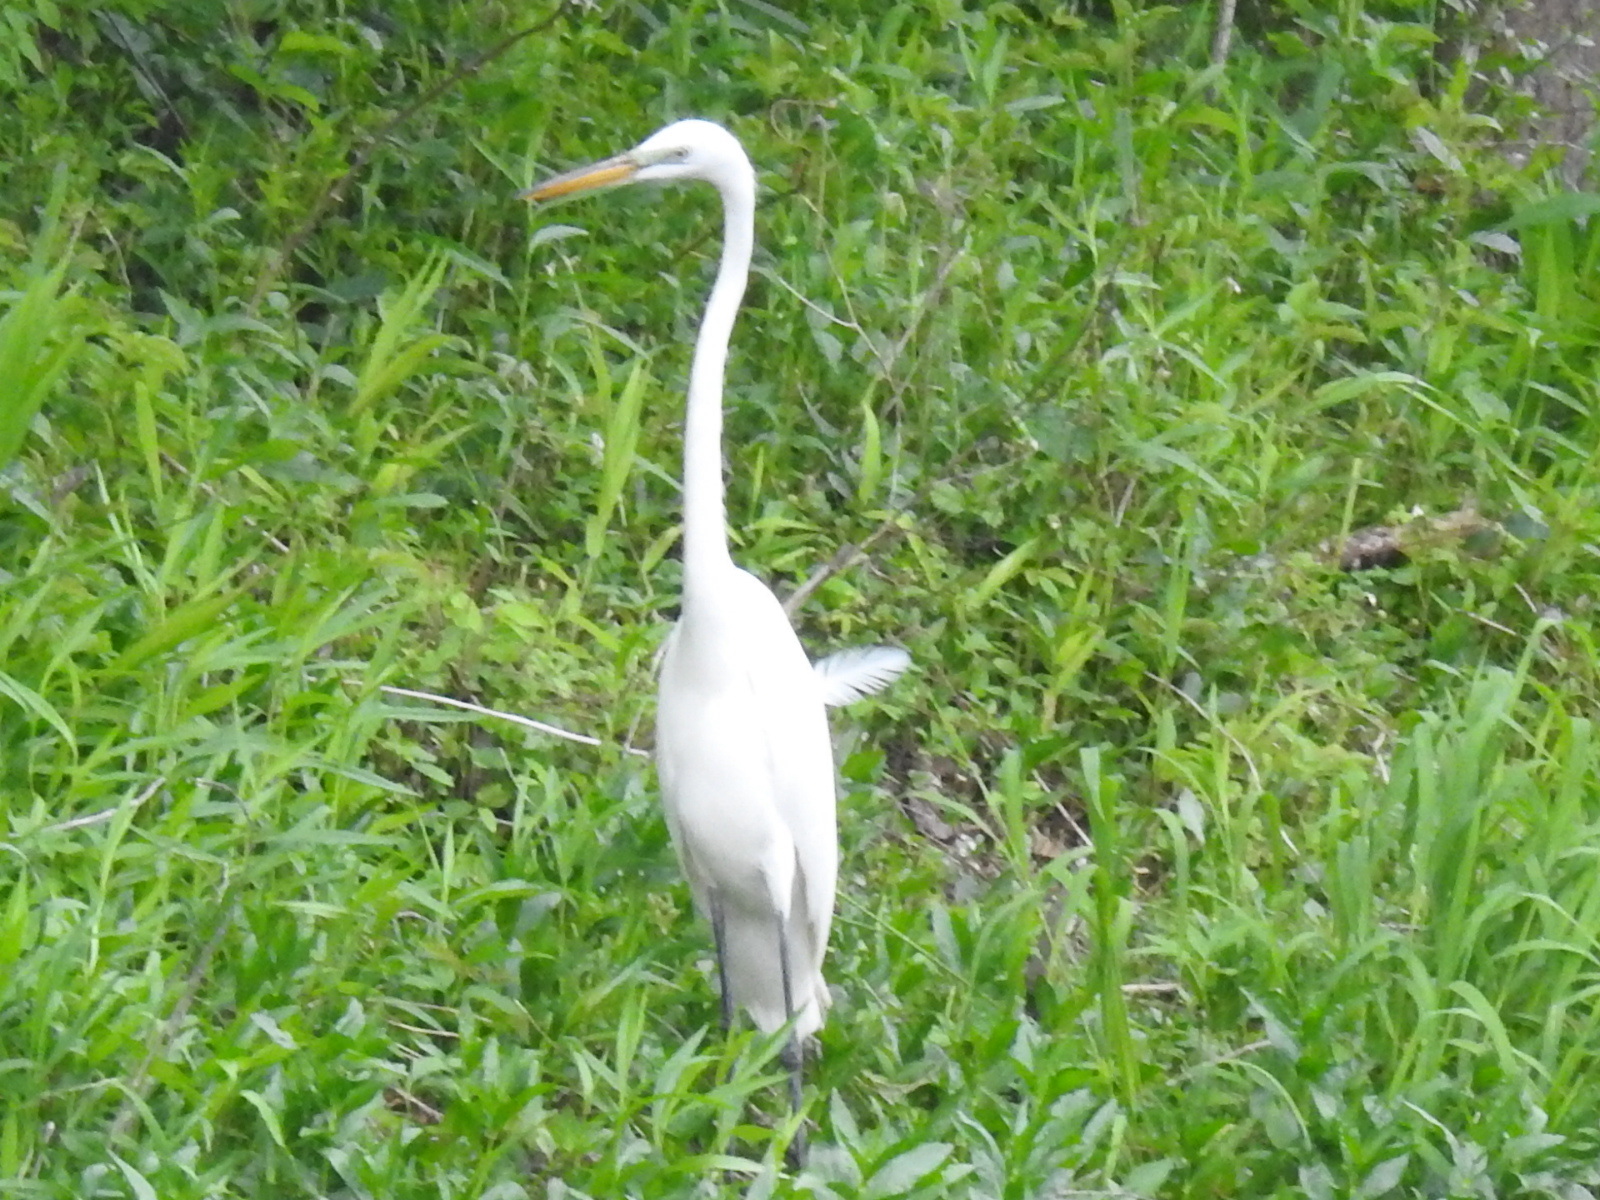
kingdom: Animalia
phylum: Chordata
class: Aves
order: Pelecaniformes
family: Ardeidae
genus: Ardea
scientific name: Ardea alba
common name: Great egret
